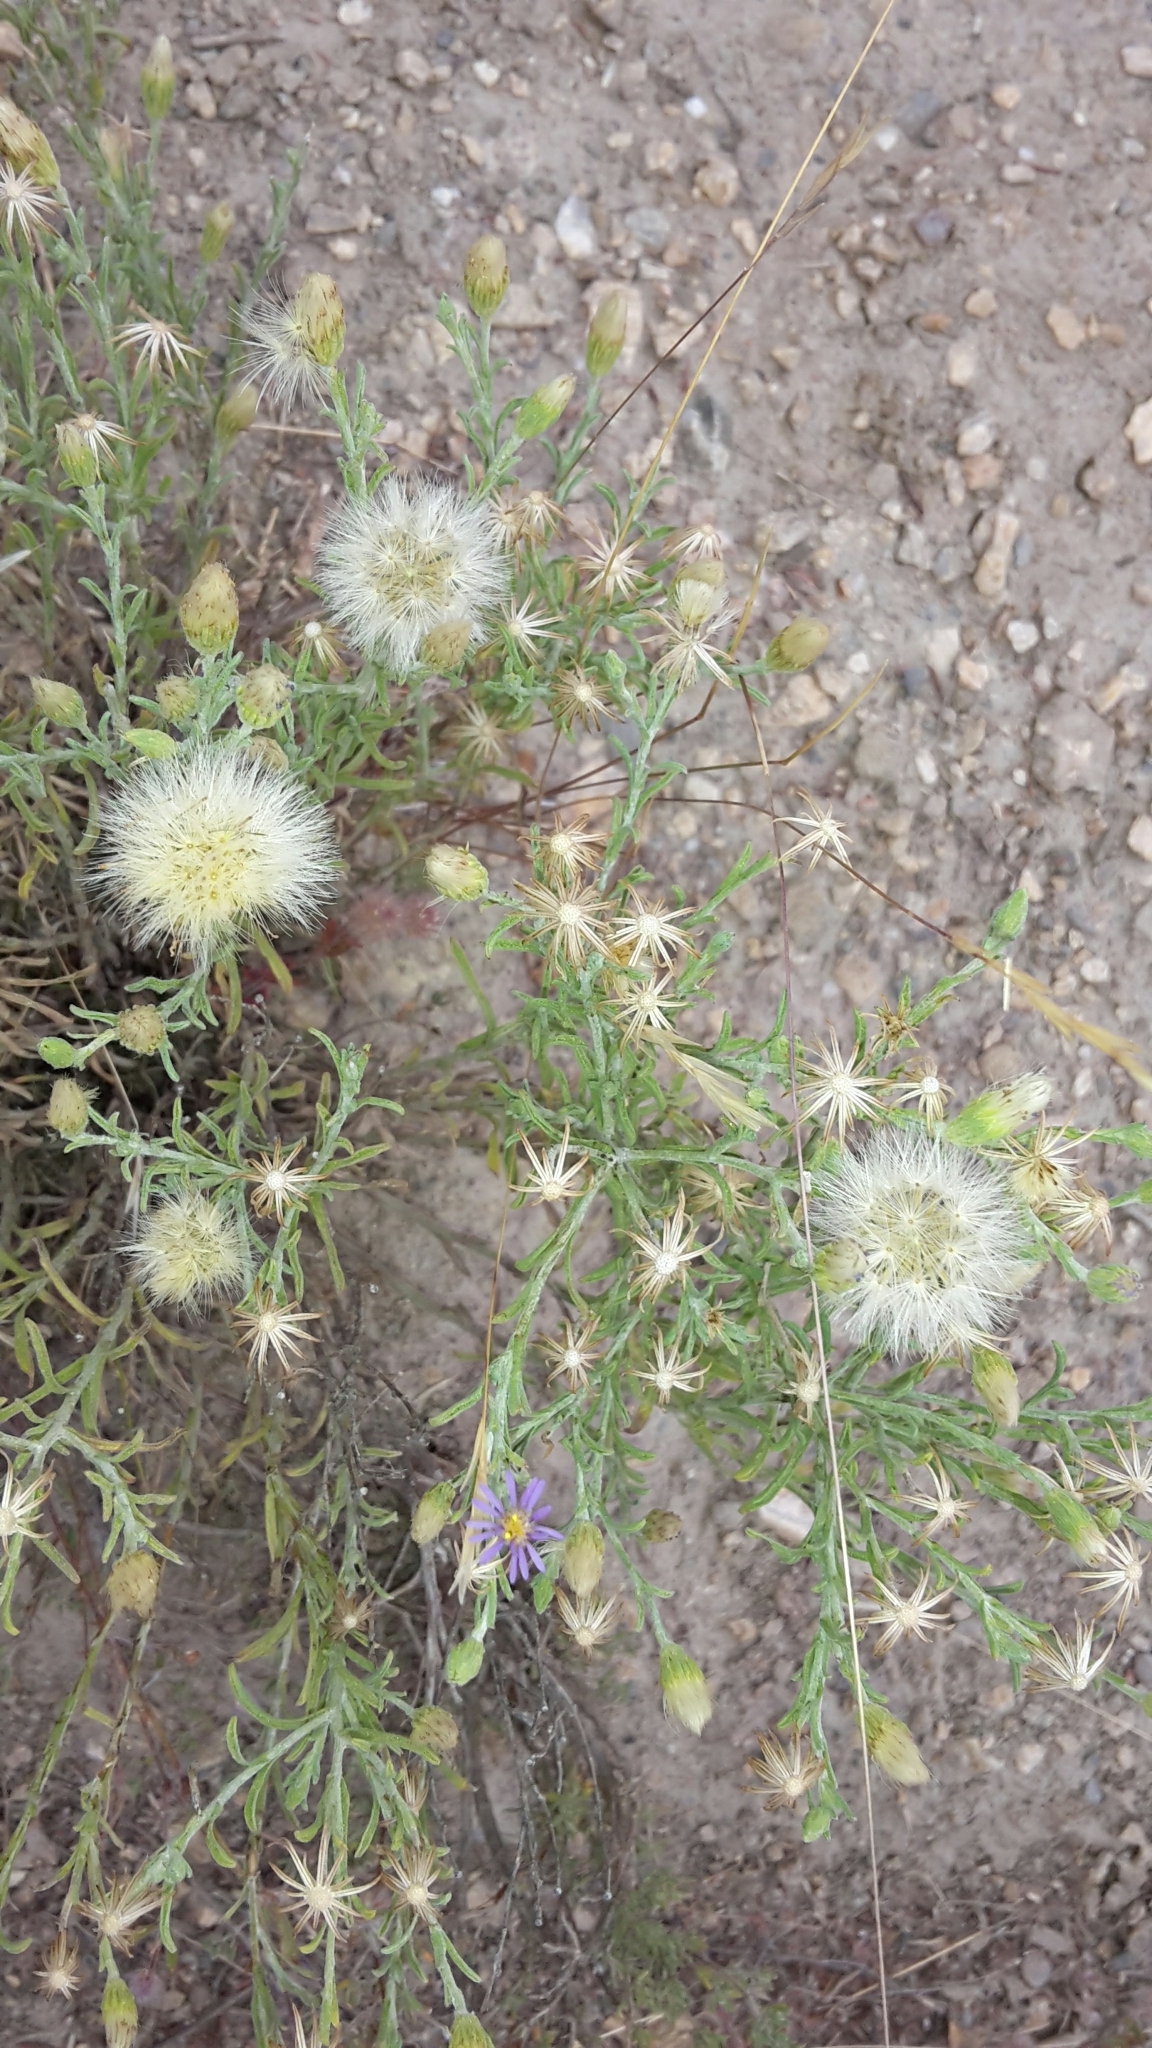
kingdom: Plantae
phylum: Tracheophyta
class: Magnoliopsida
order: Asterales
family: Asteraceae
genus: Vittadinia
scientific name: Vittadinia gracilis
